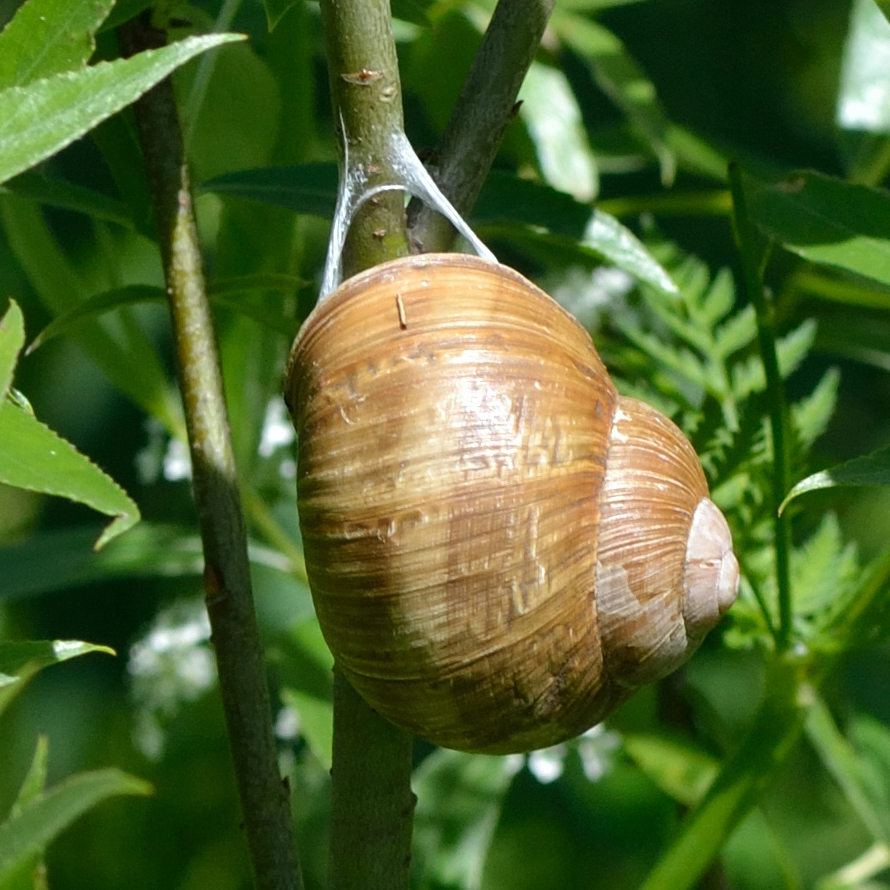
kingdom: Animalia
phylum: Mollusca
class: Gastropoda
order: Stylommatophora
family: Helicidae
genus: Helix
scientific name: Helix pomatia
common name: Roman snail
